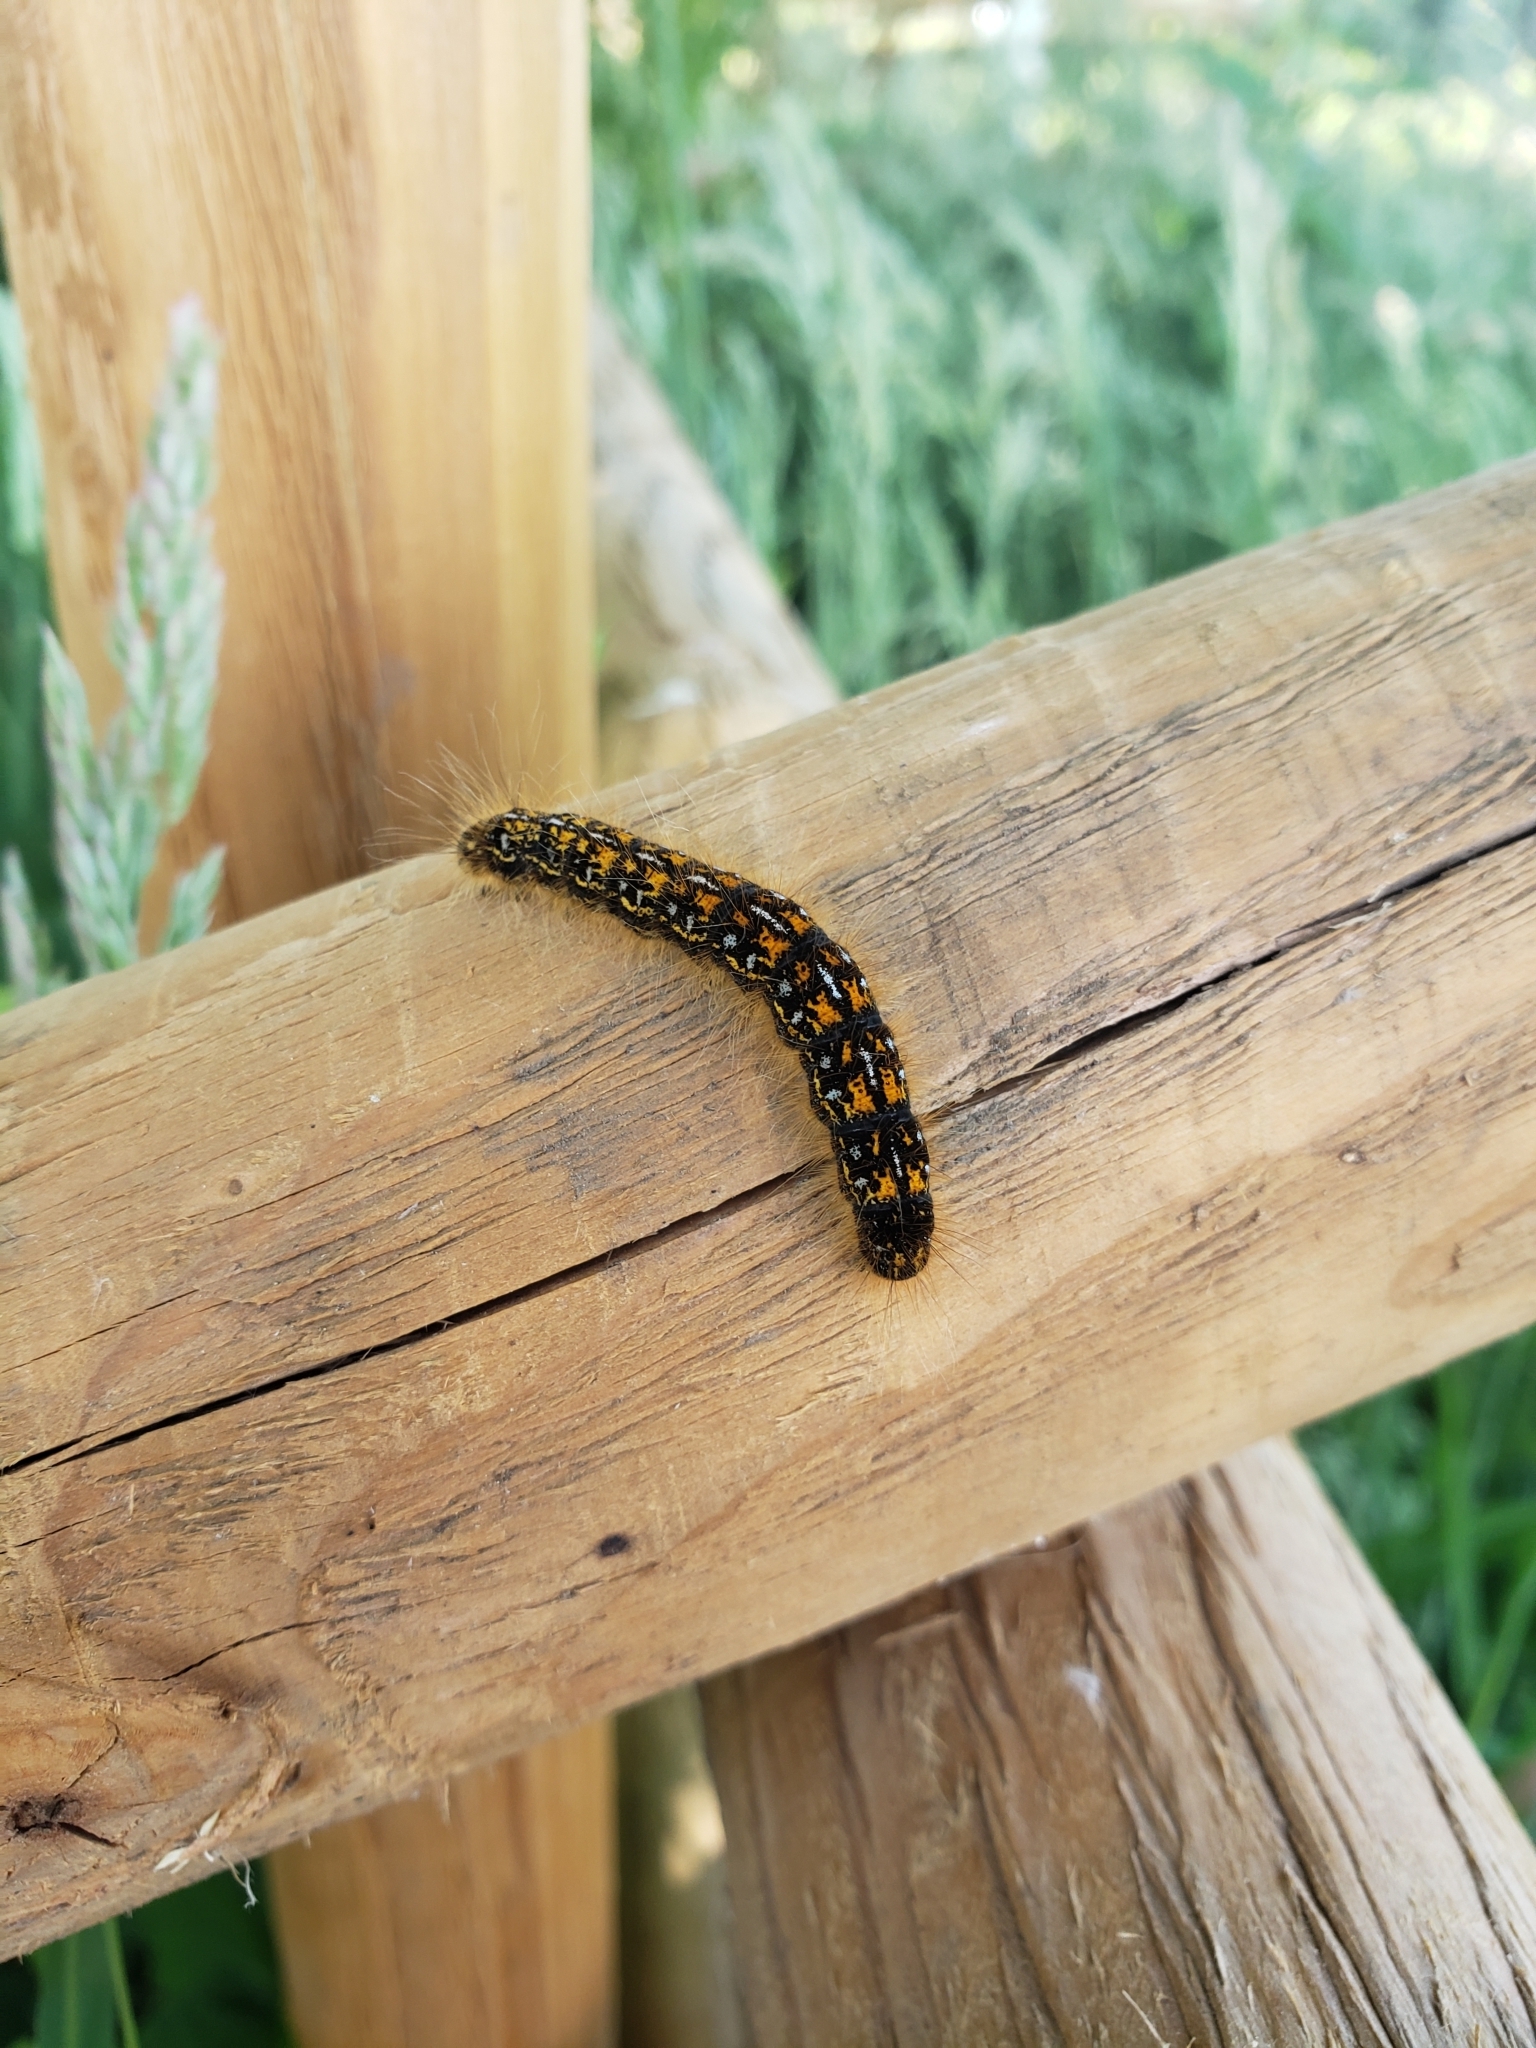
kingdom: Animalia
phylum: Arthropoda
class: Insecta
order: Lepidoptera
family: Lasiocampidae
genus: Malacosoma
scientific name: Malacosoma californica
